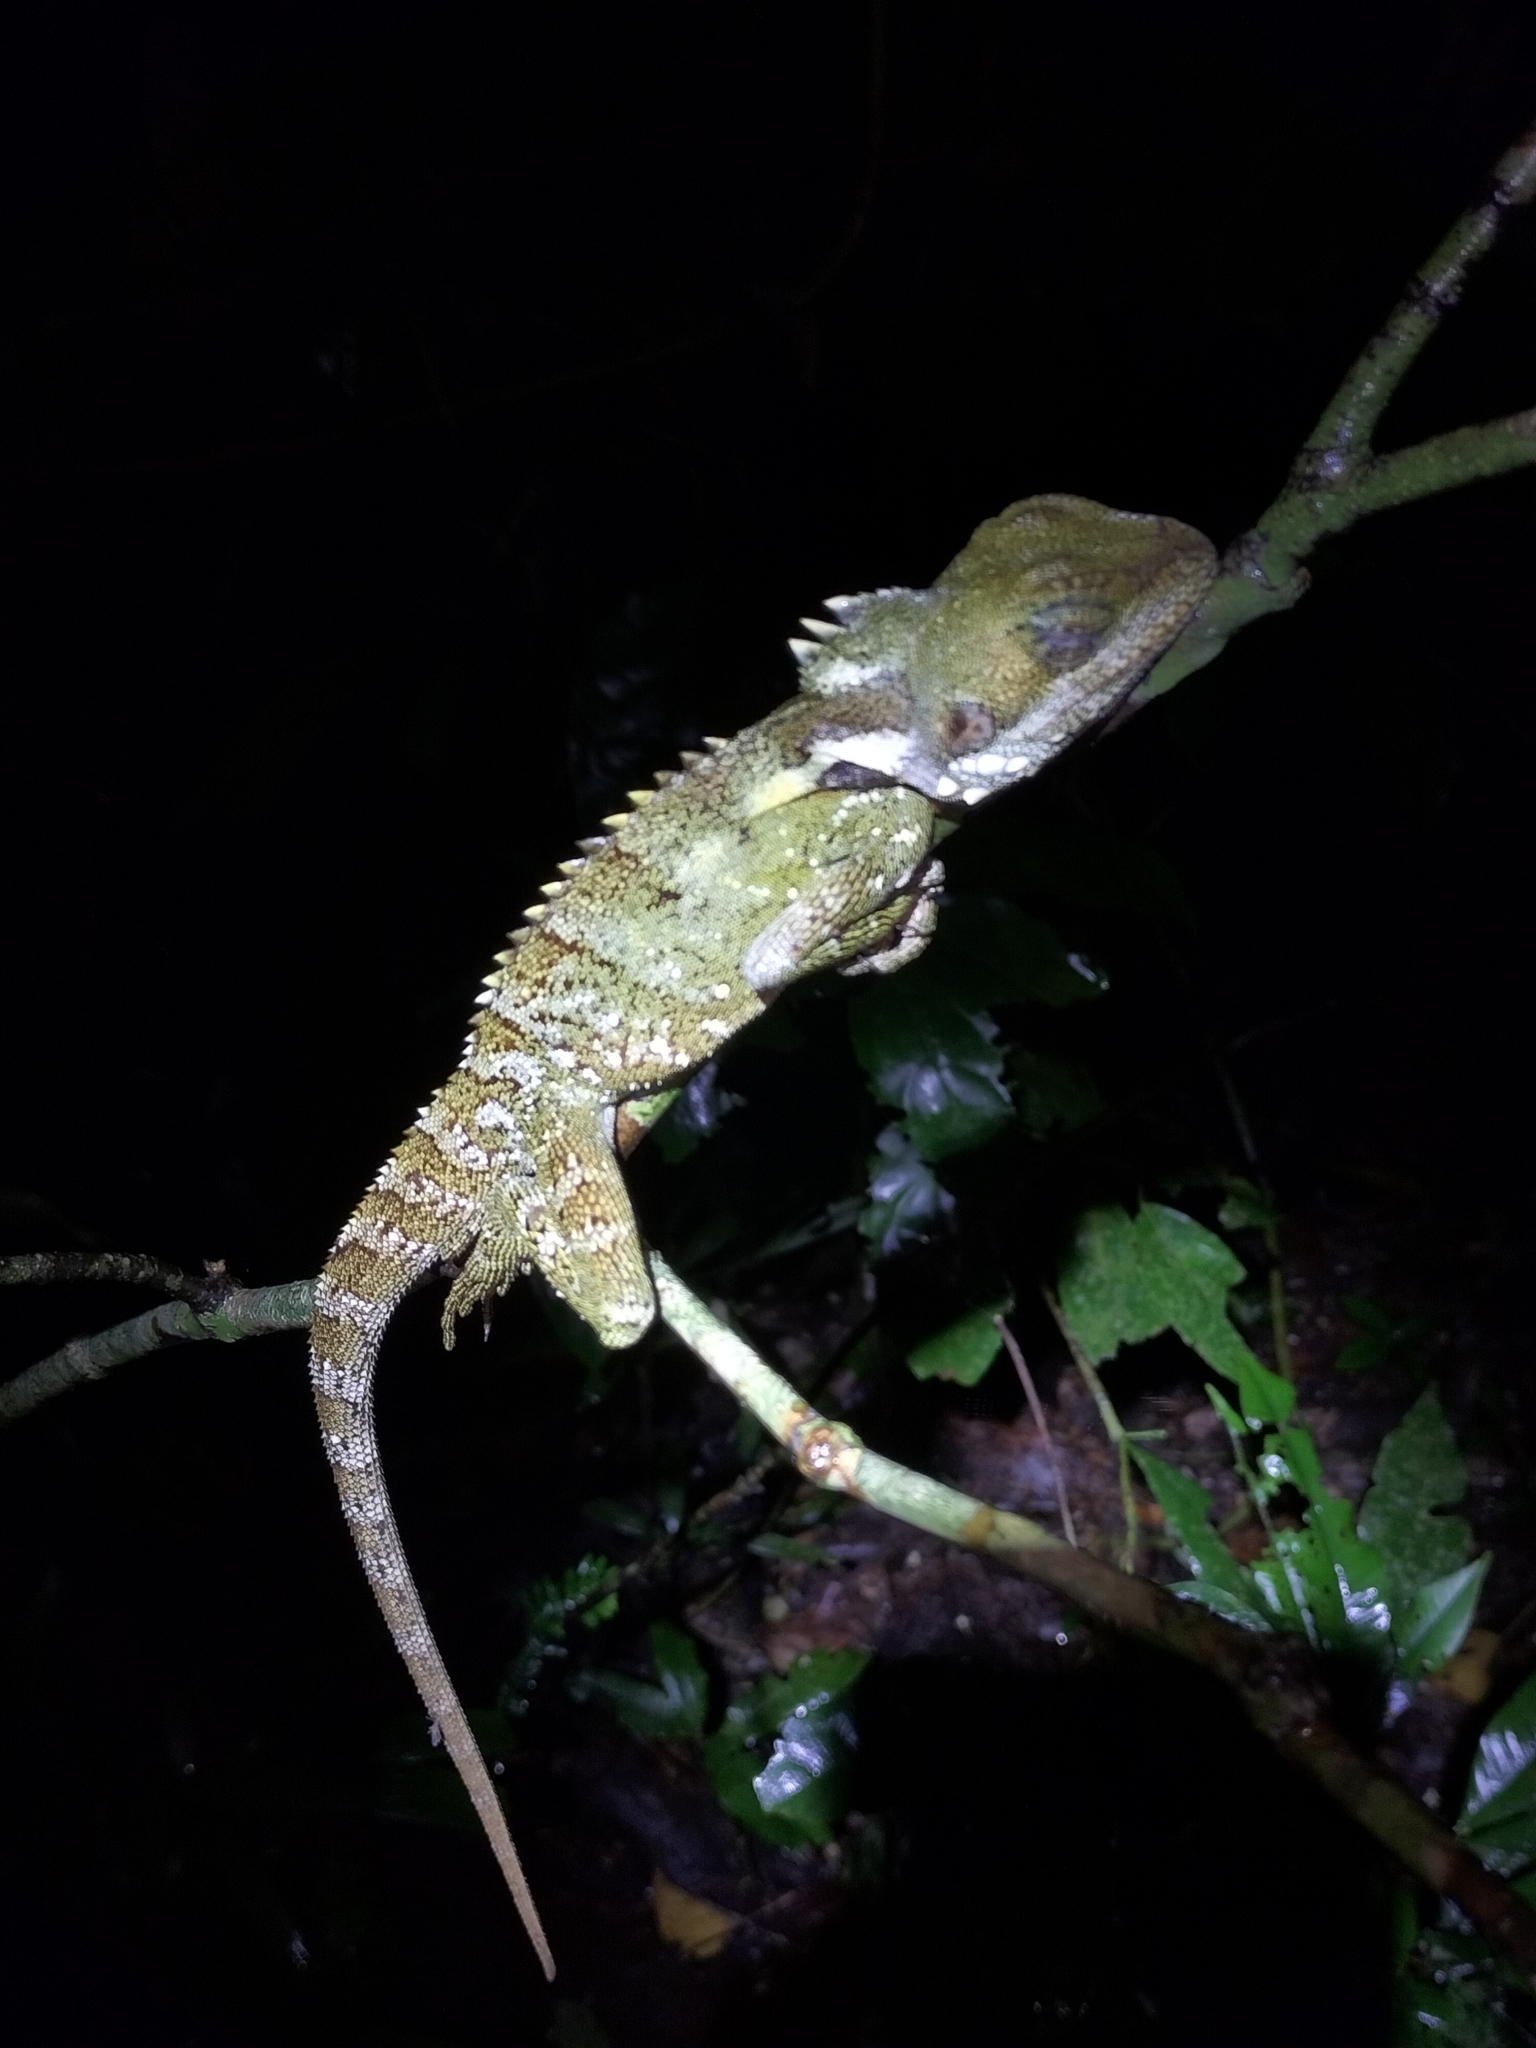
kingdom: Animalia
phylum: Chordata
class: Squamata
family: Agamidae
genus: Lophosaurus
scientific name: Lophosaurus boydii
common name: Boyd's forest dragon
